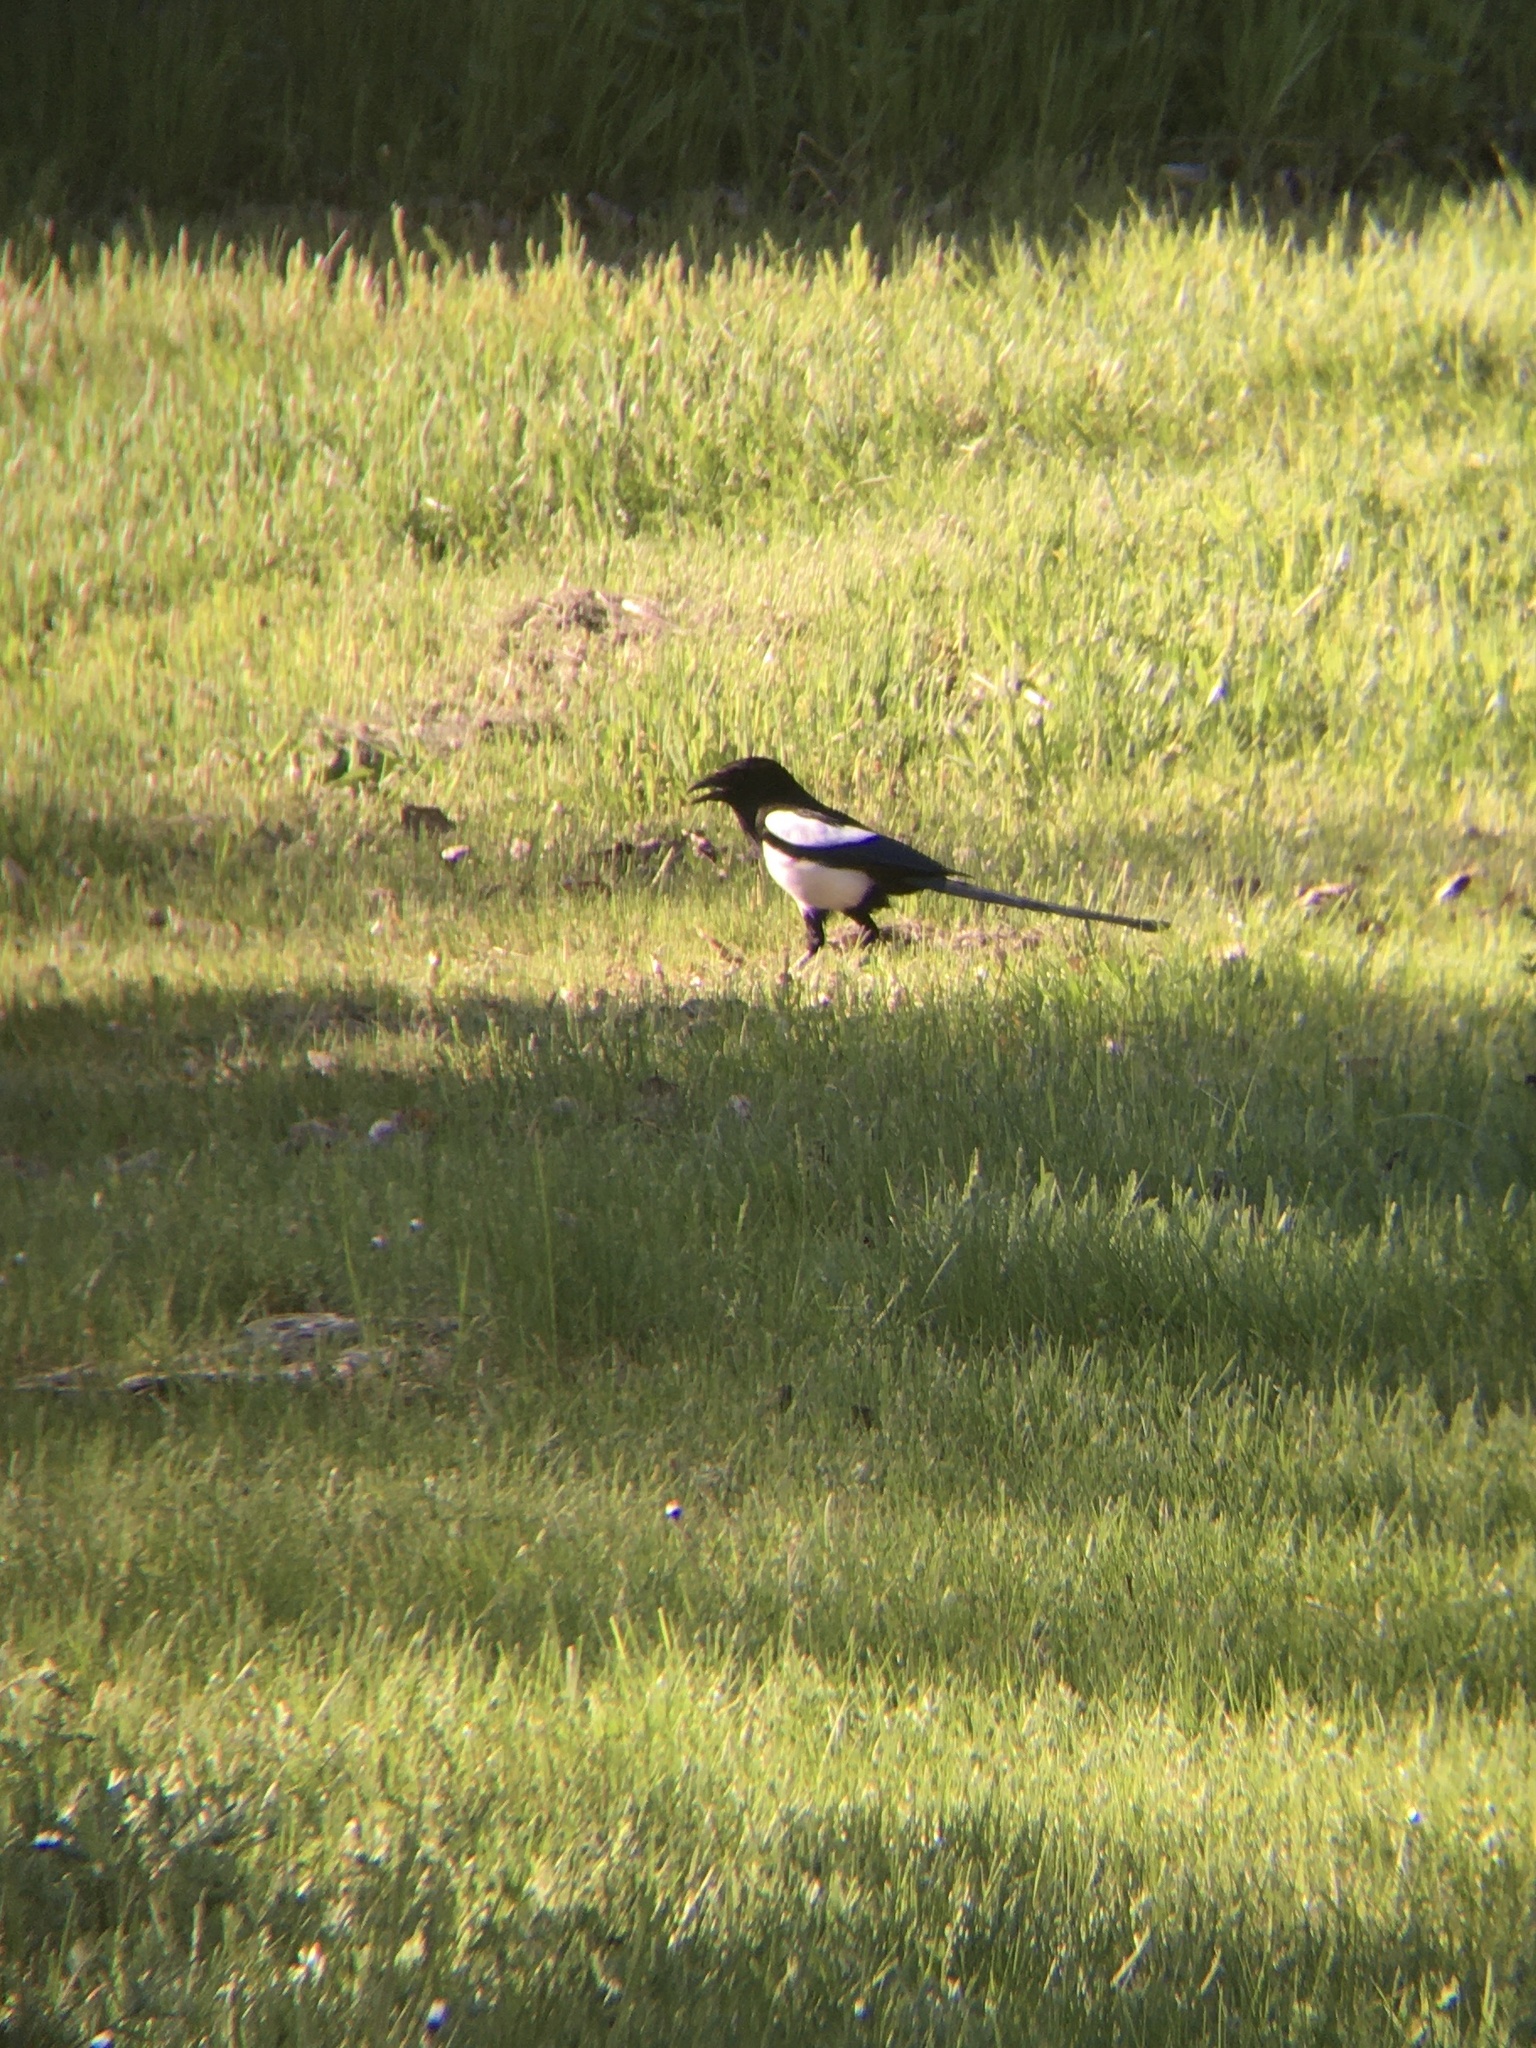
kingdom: Animalia
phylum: Chordata
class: Aves
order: Passeriformes
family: Corvidae
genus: Pica
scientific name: Pica pica
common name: Eurasian magpie
